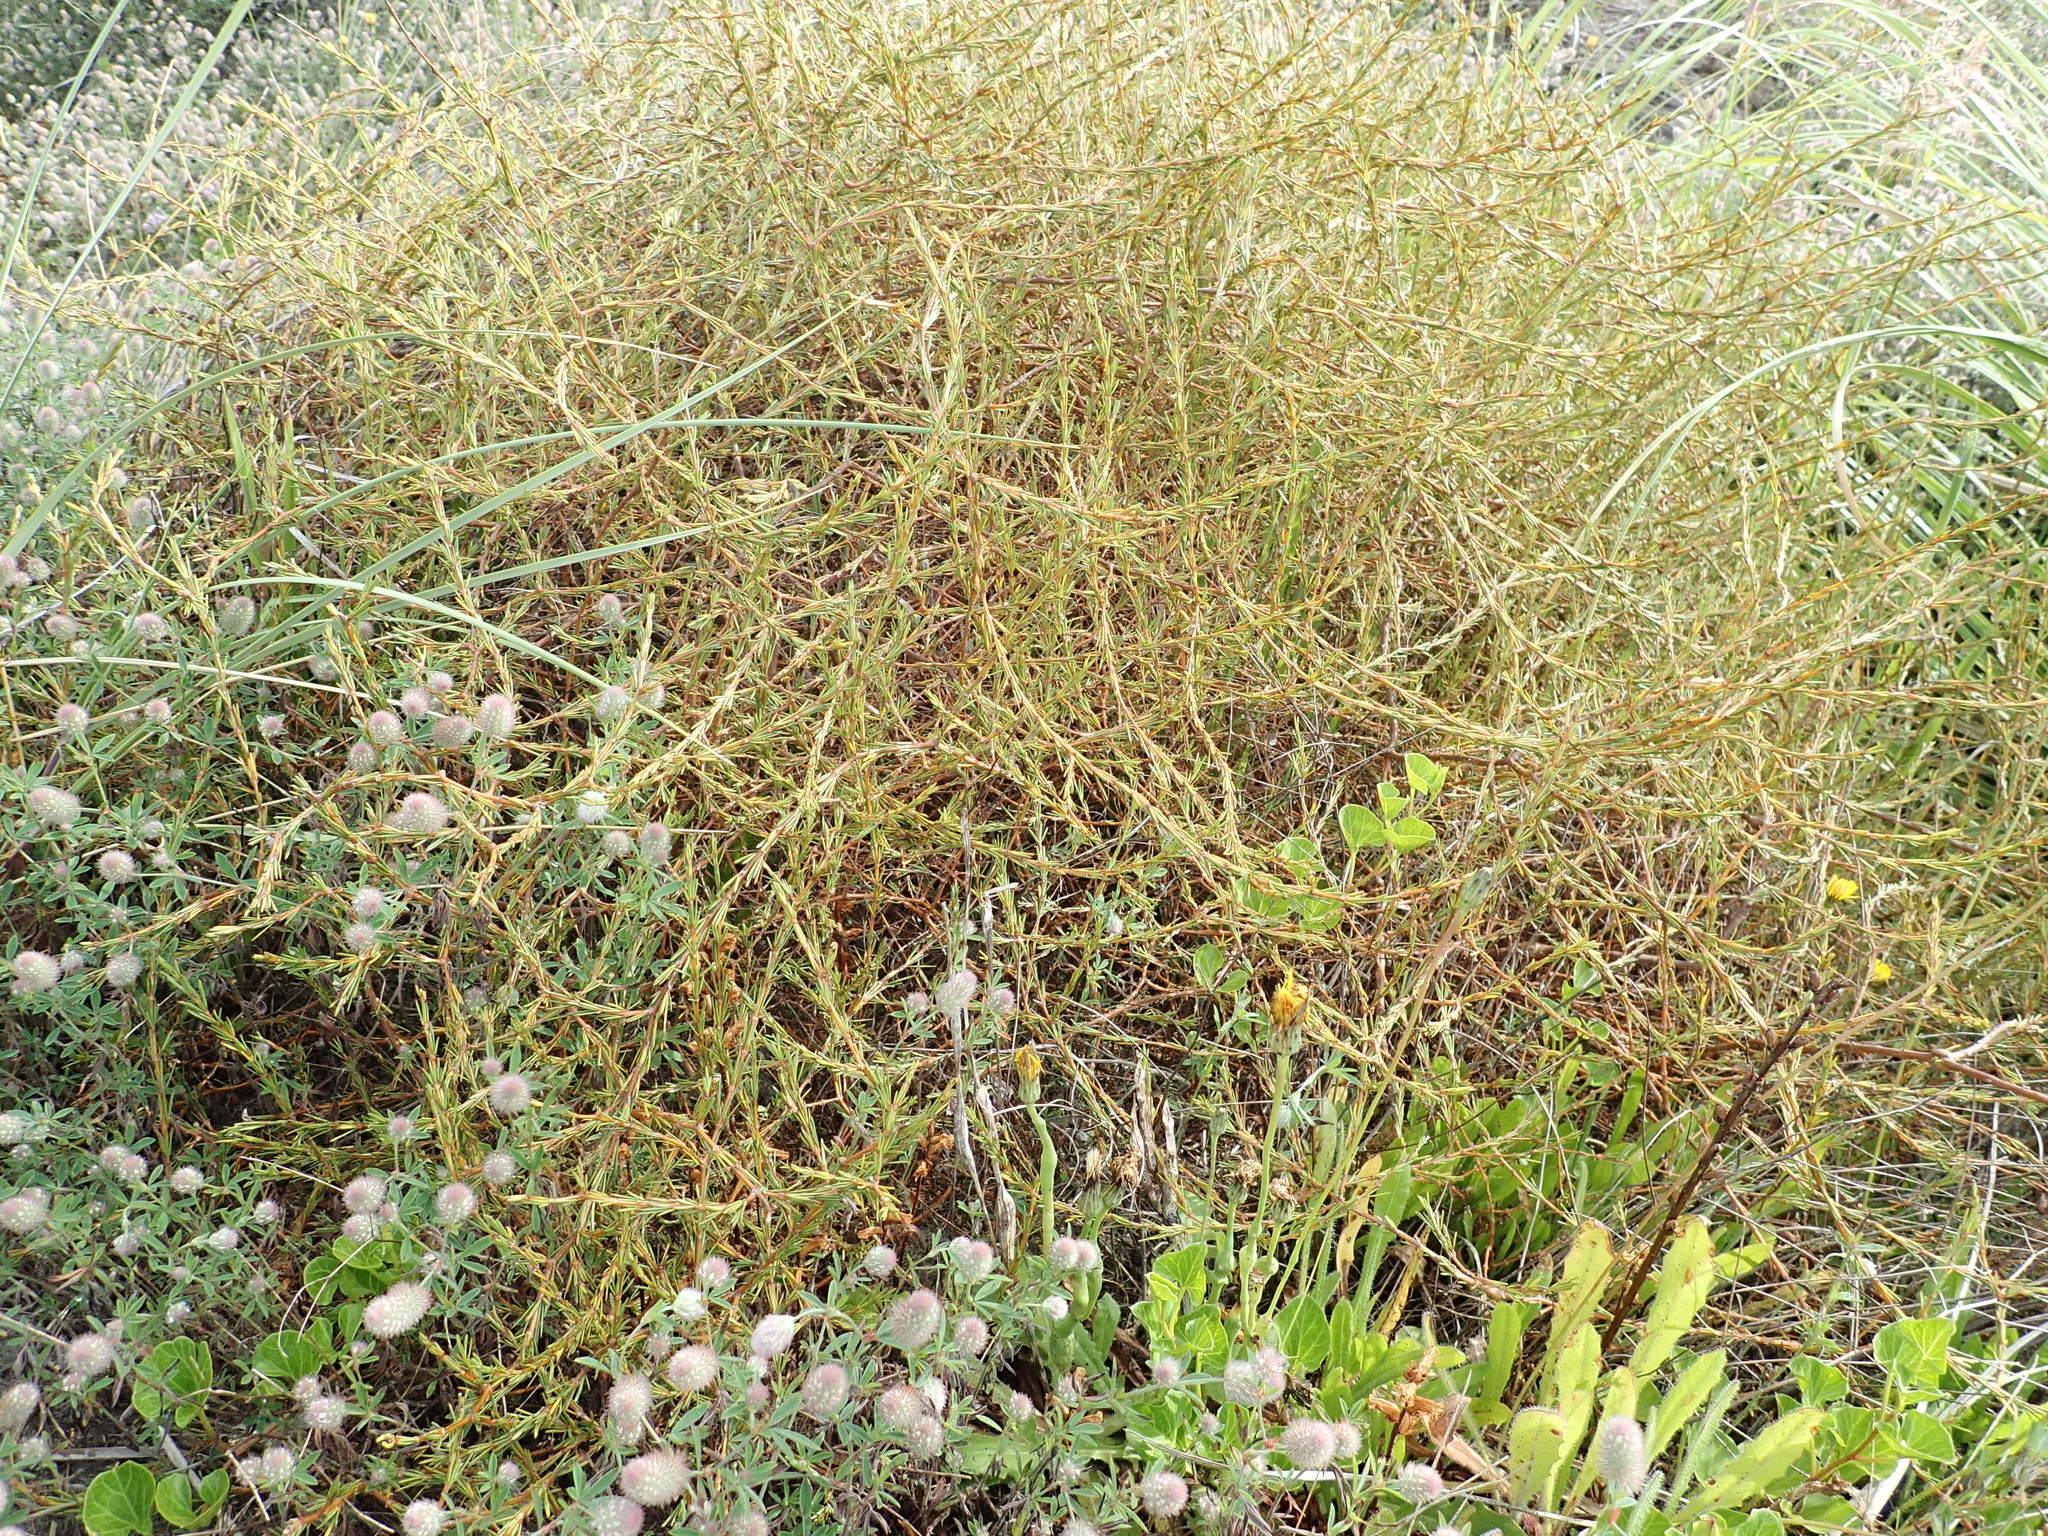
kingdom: Plantae
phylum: Tracheophyta
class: Magnoliopsida
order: Gentianales
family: Rubiaceae
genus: Coprosma
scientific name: Coprosma acerosa
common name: Sand coprosma
